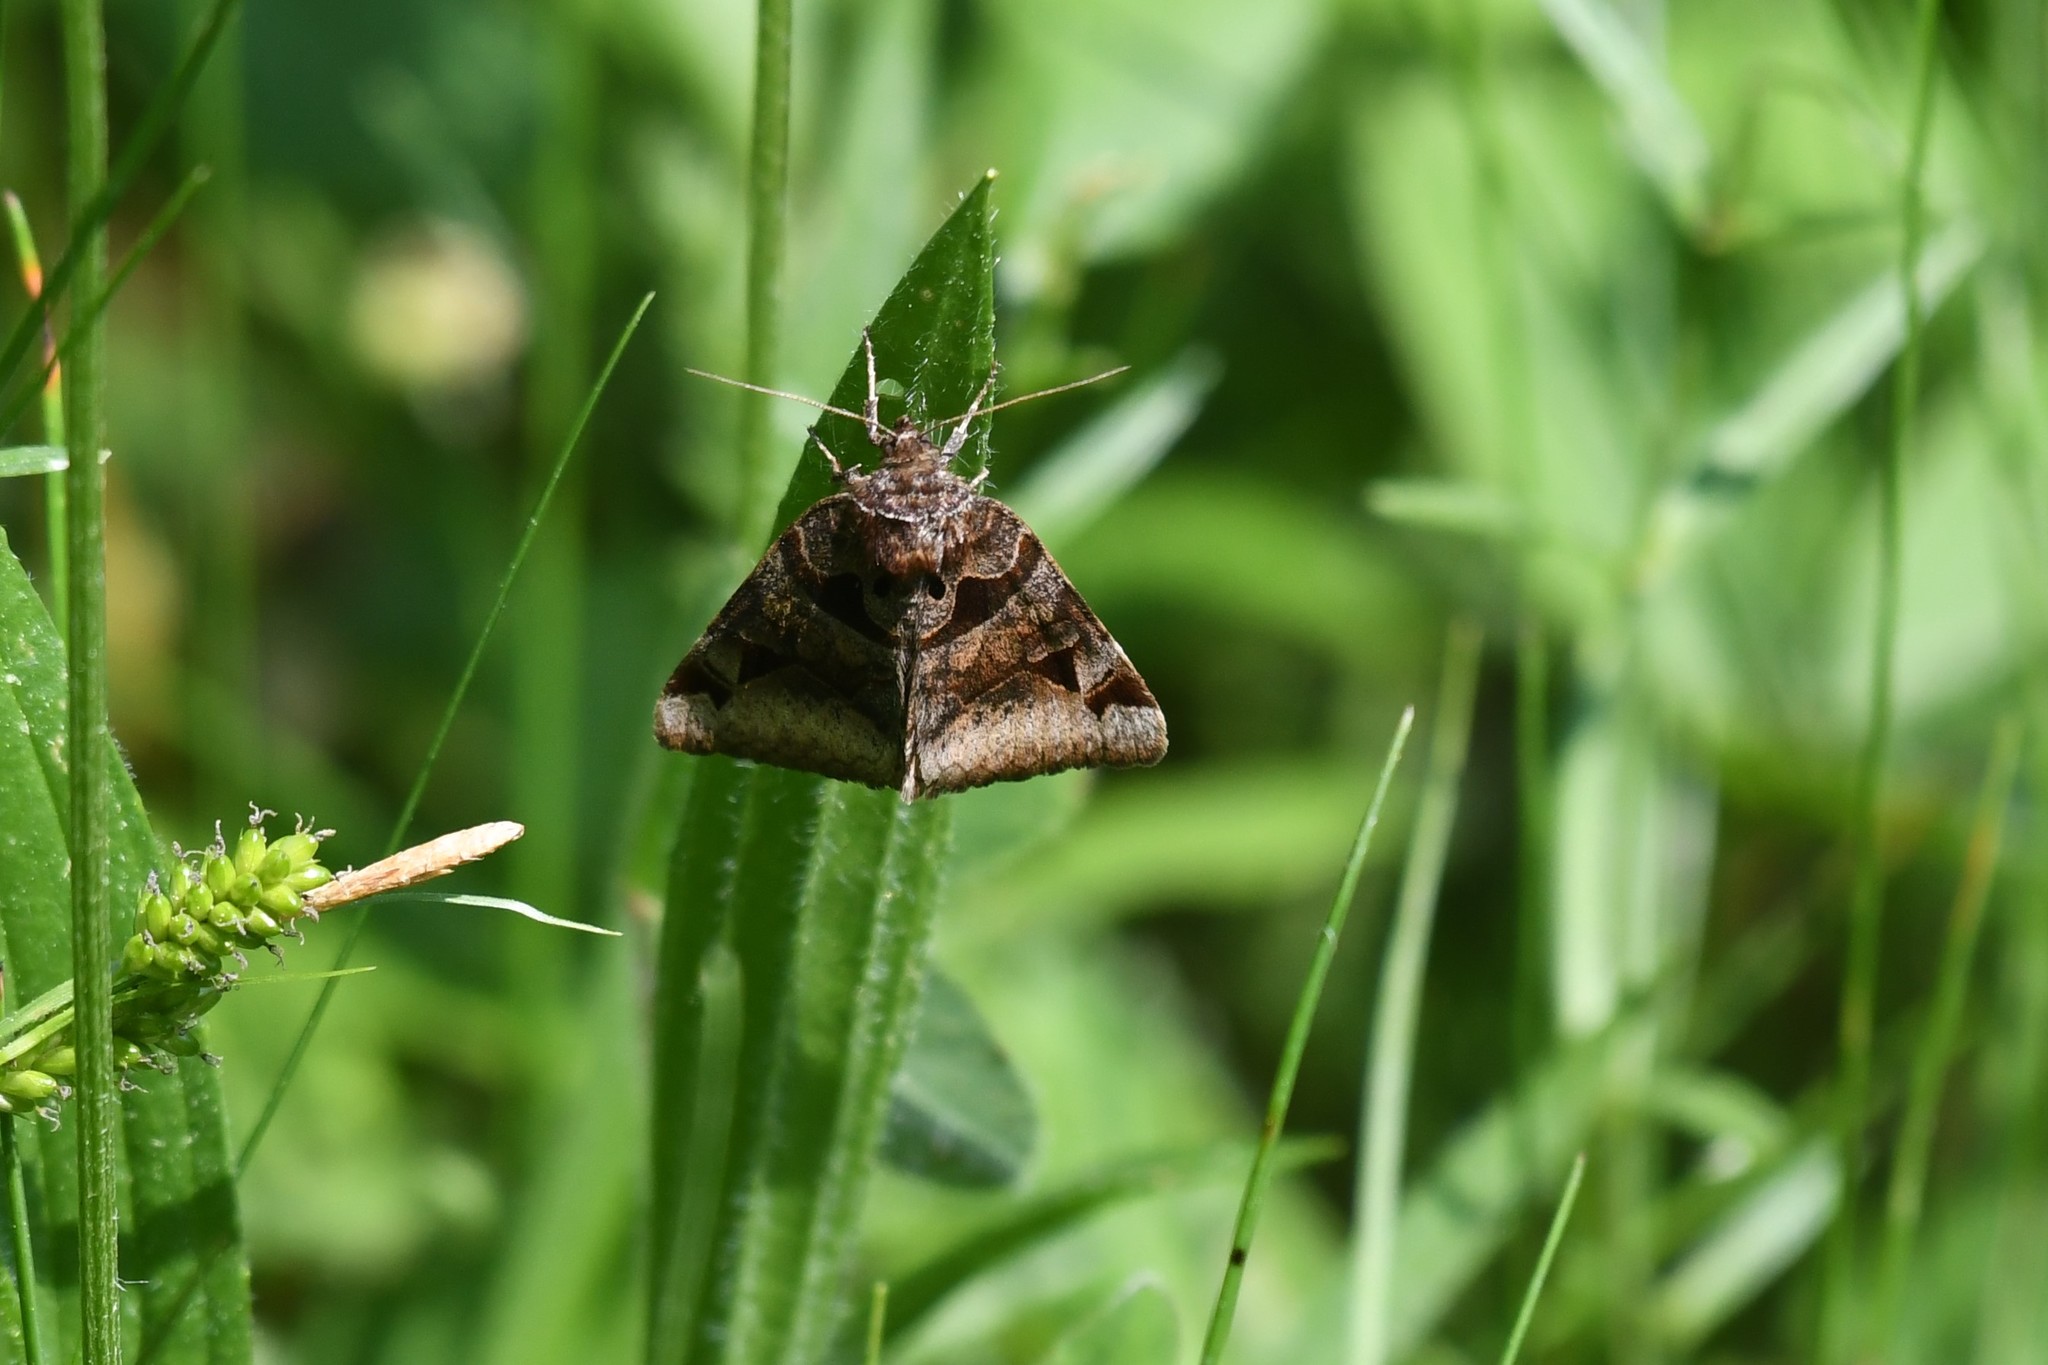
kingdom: Animalia
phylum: Arthropoda
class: Insecta
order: Lepidoptera
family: Erebidae
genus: Euclidia
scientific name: Euclidia cuspidea
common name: Toothed somberwing
